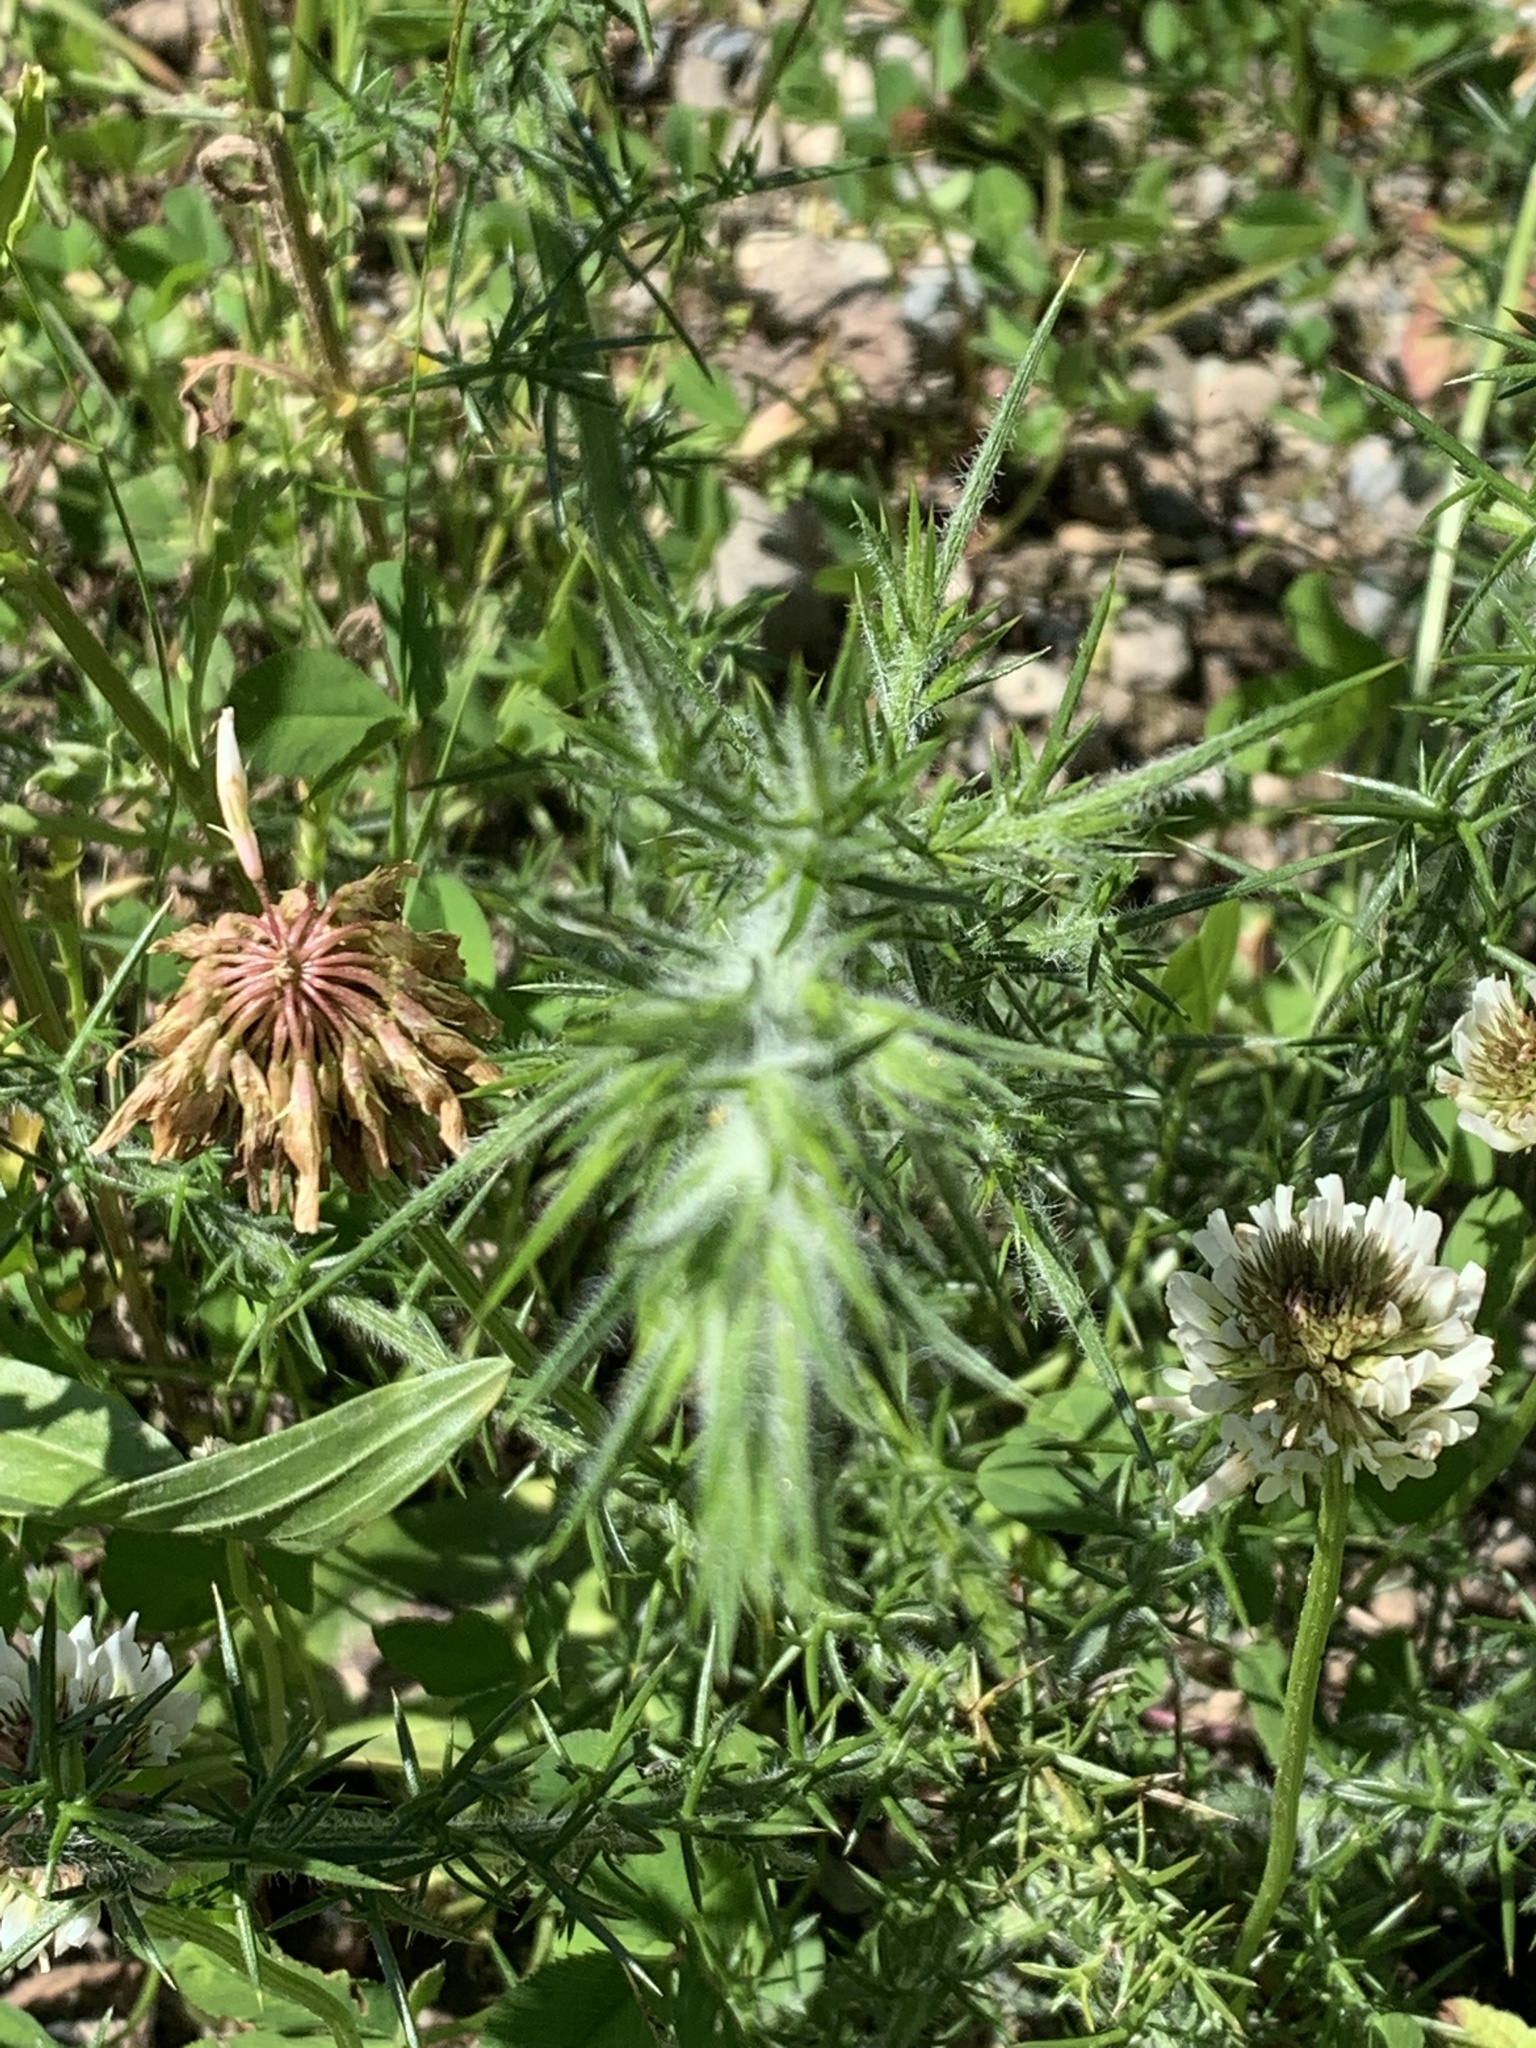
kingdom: Plantae
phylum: Tracheophyta
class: Magnoliopsida
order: Fabales
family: Fabaceae
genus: Ulex
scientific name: Ulex europaeus
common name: Common gorse
